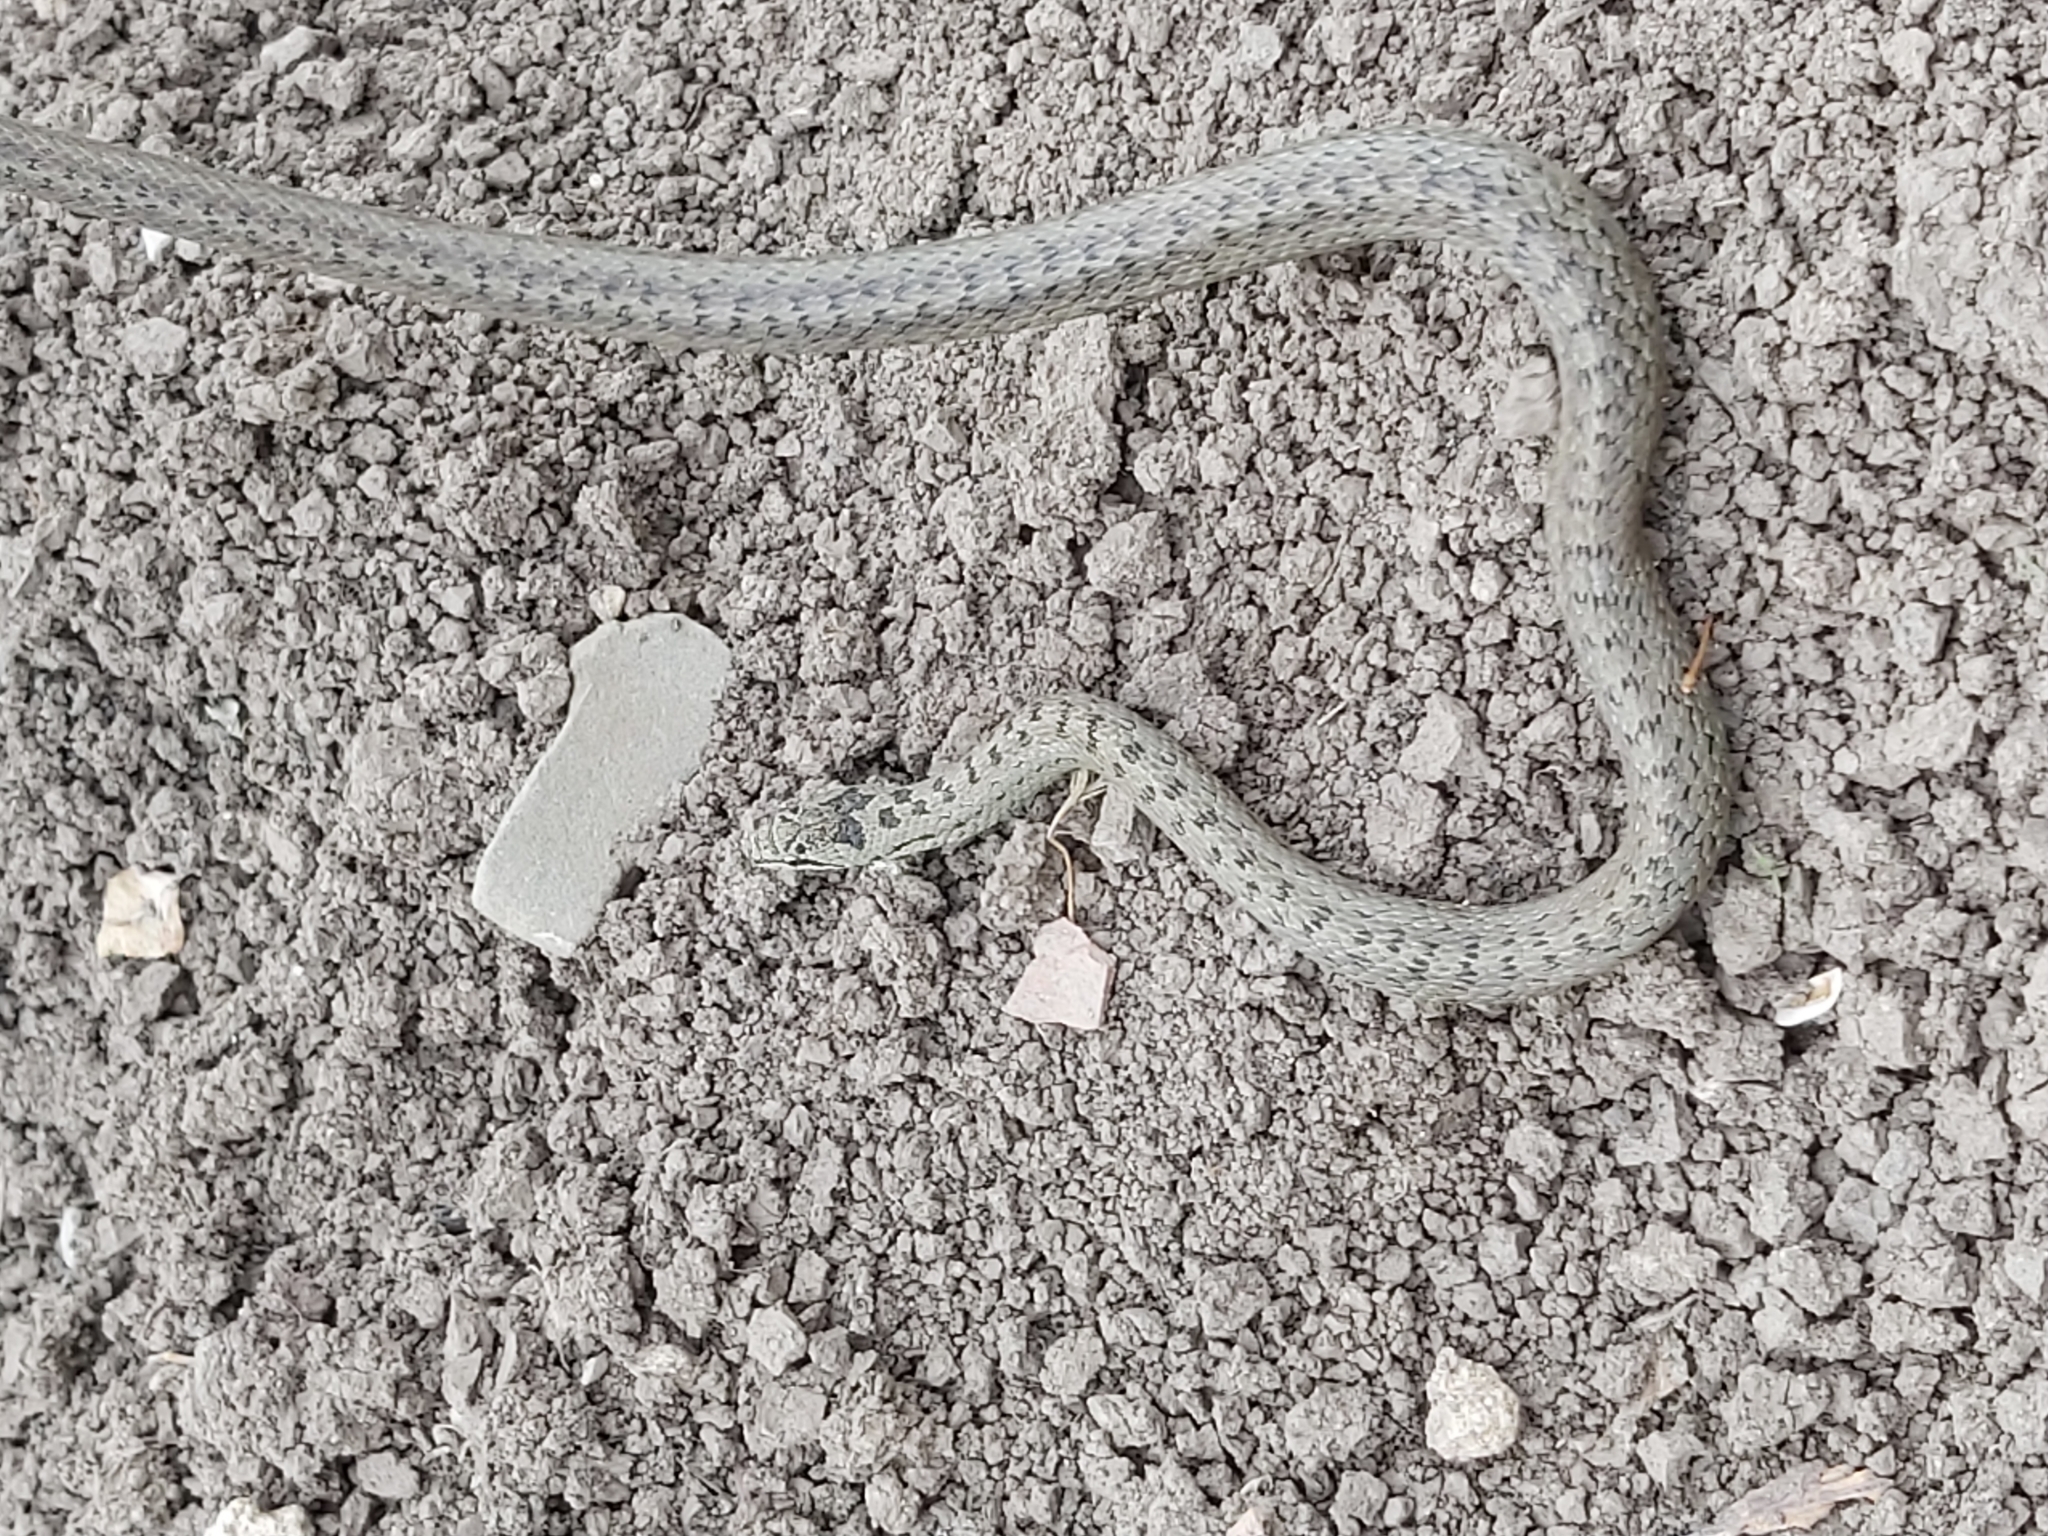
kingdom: Animalia
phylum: Chordata
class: Squamata
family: Colubridae
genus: Coronella
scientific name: Coronella austriaca
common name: Smooth snake
